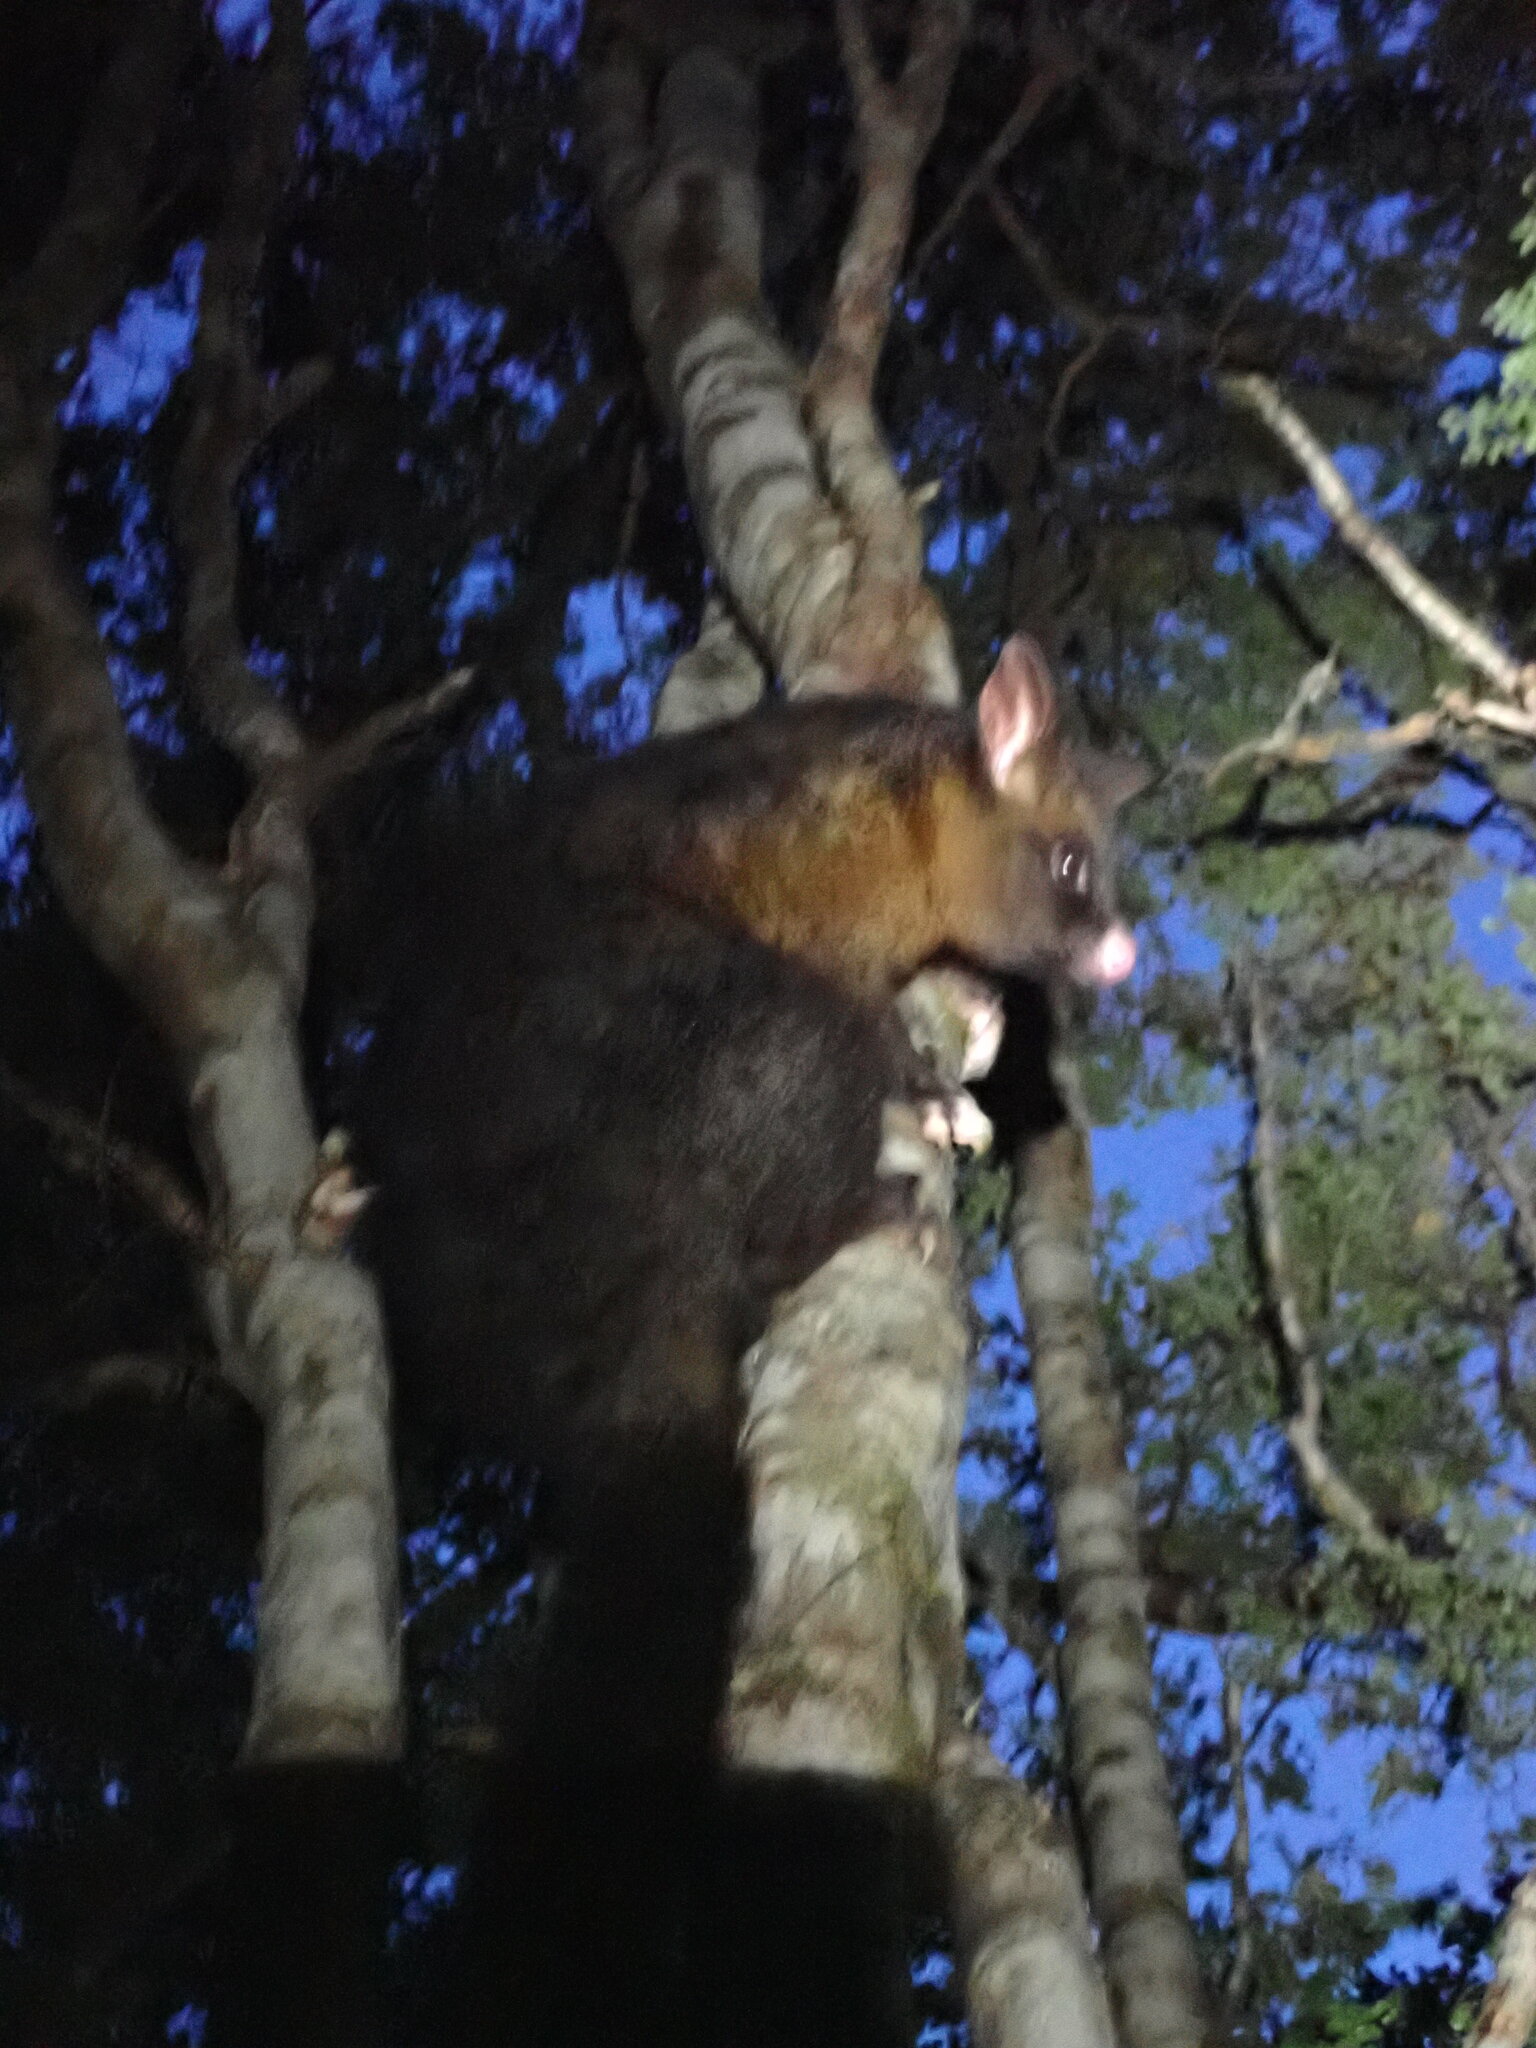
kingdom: Animalia
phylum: Chordata
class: Mammalia
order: Diprotodontia
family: Phalangeridae
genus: Trichosurus
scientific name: Trichosurus vulpecula
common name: Common brushtail
